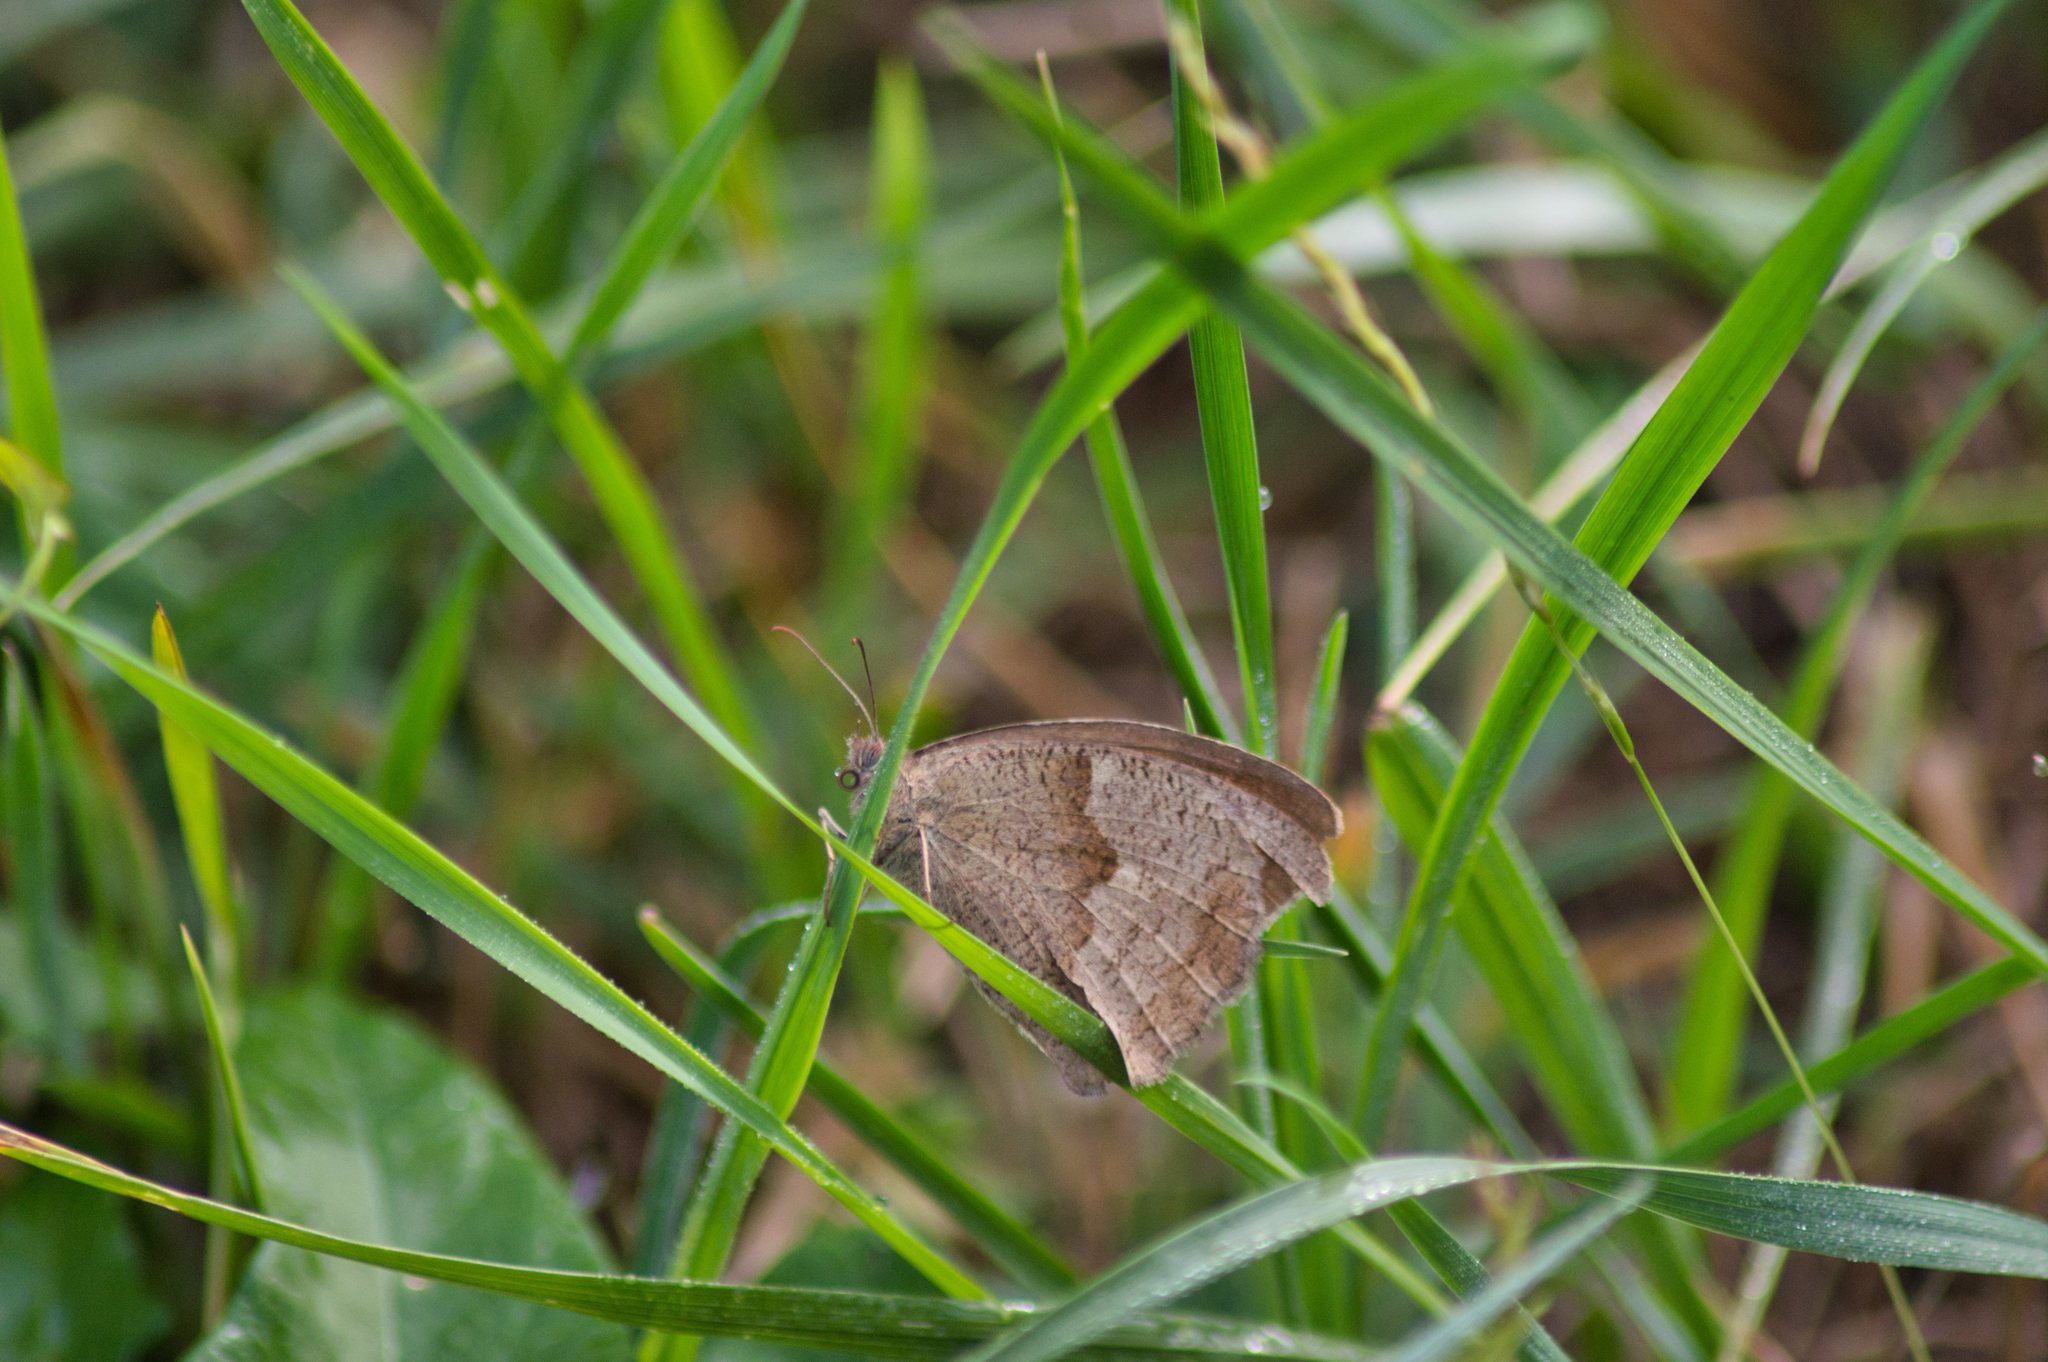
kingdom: Animalia
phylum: Arthropoda
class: Insecta
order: Lepidoptera
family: Nymphalidae
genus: Maniola
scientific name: Maniola jurtina
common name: Meadow brown
